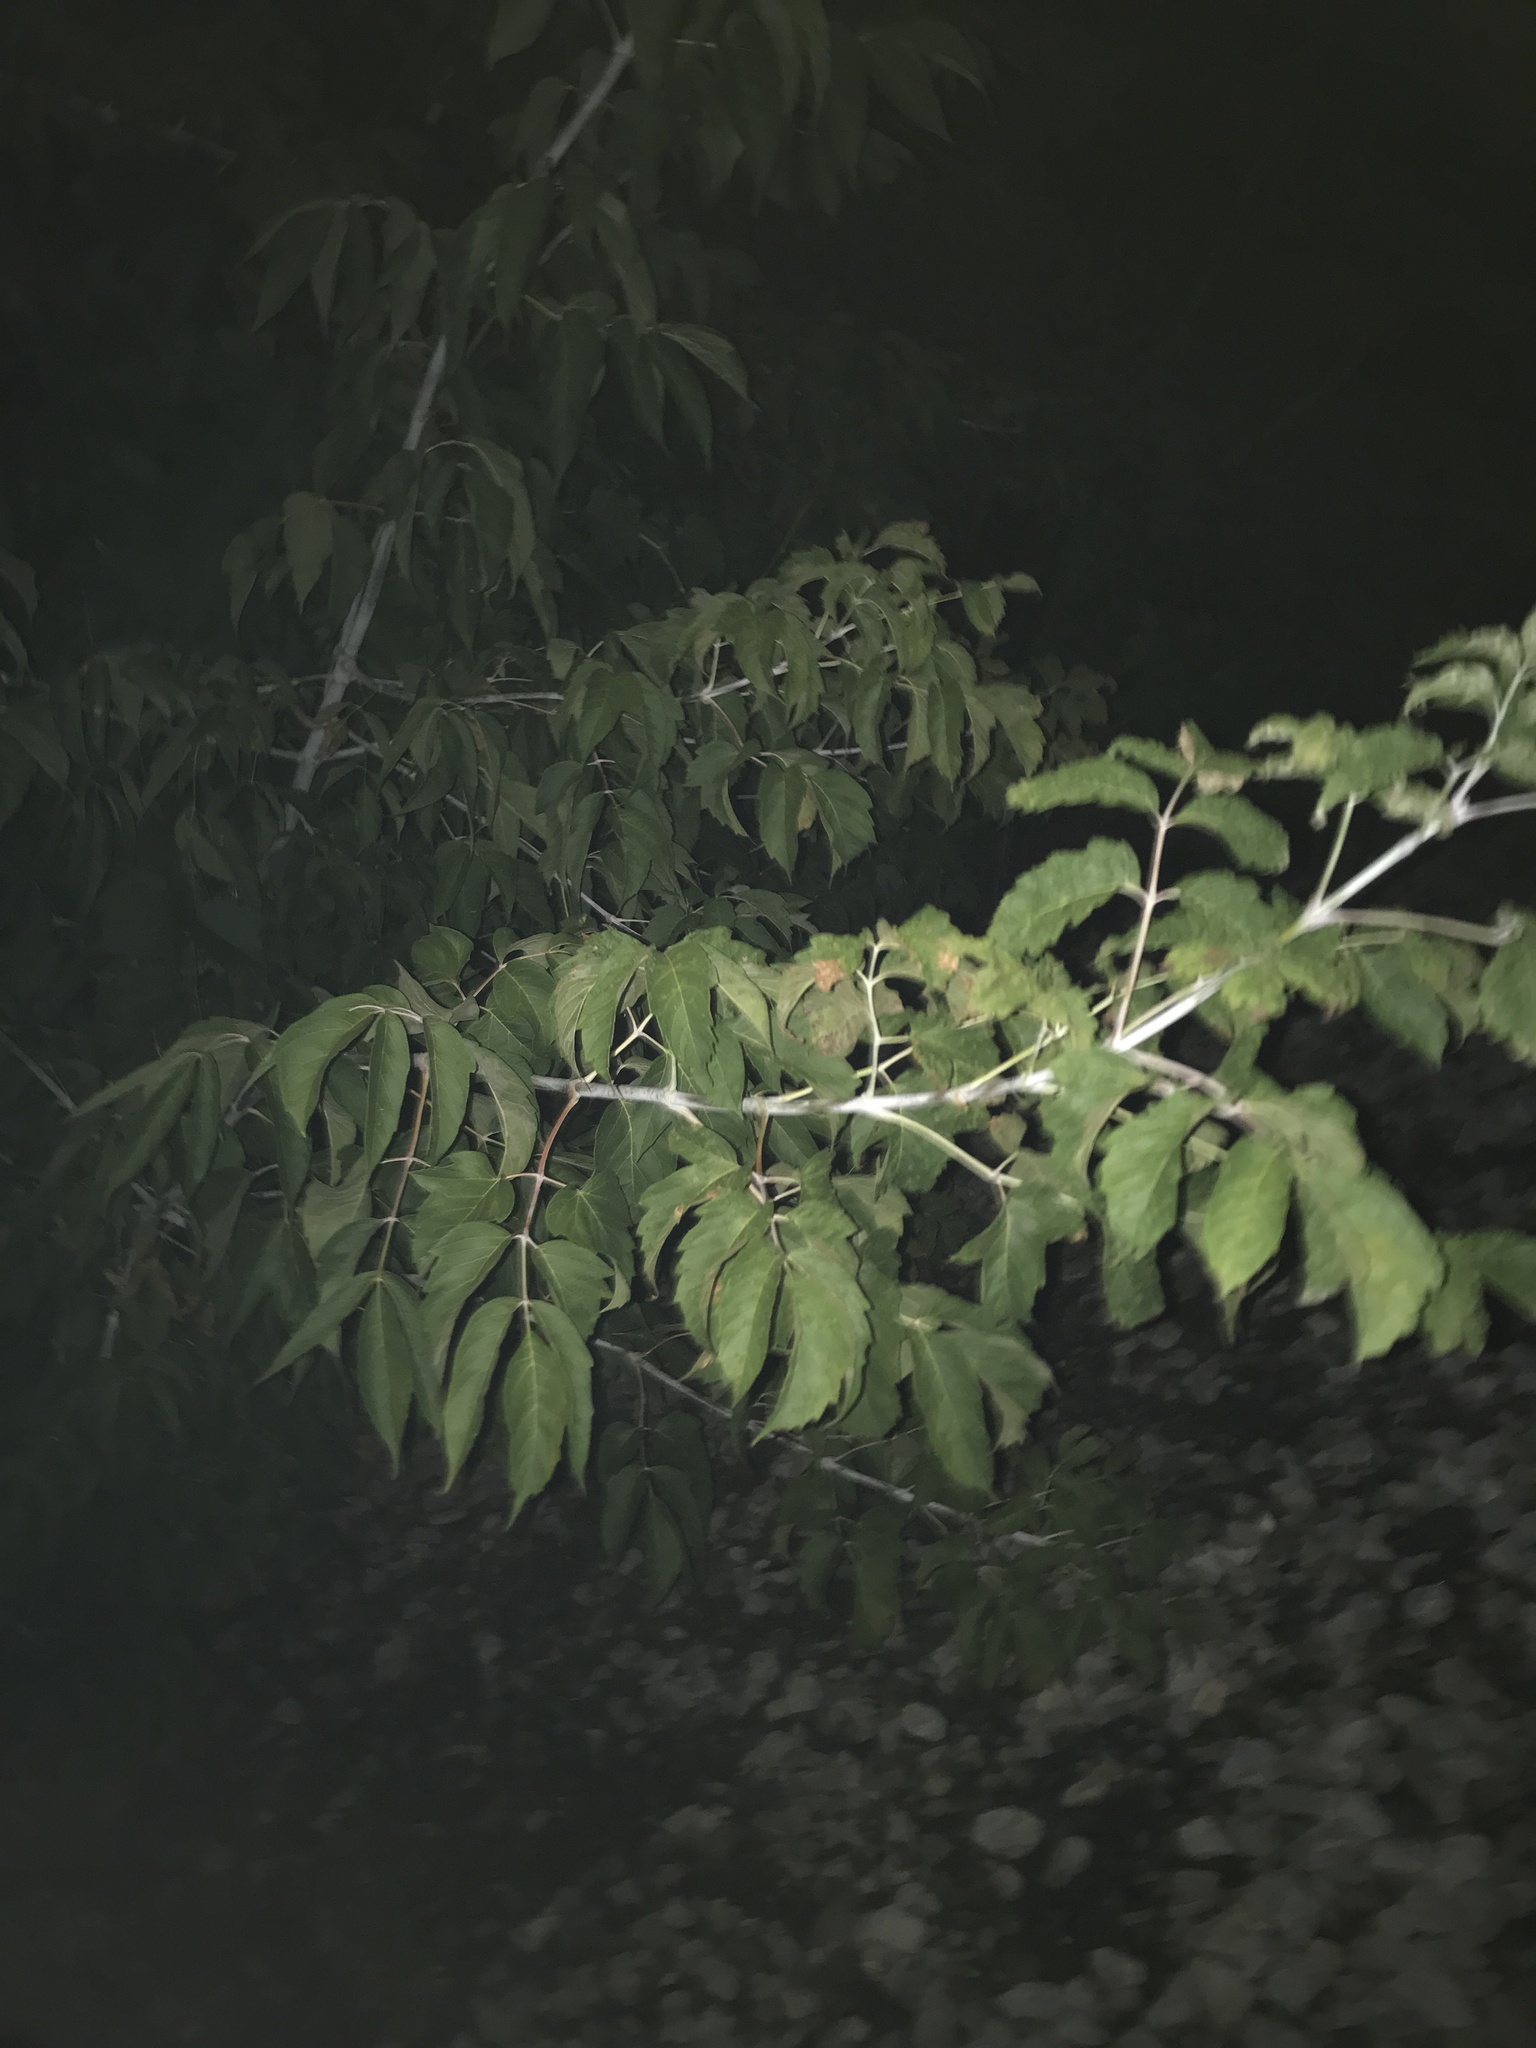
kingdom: Plantae
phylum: Tracheophyta
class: Magnoliopsida
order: Sapindales
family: Sapindaceae
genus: Acer
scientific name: Acer negundo
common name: Ashleaf maple
